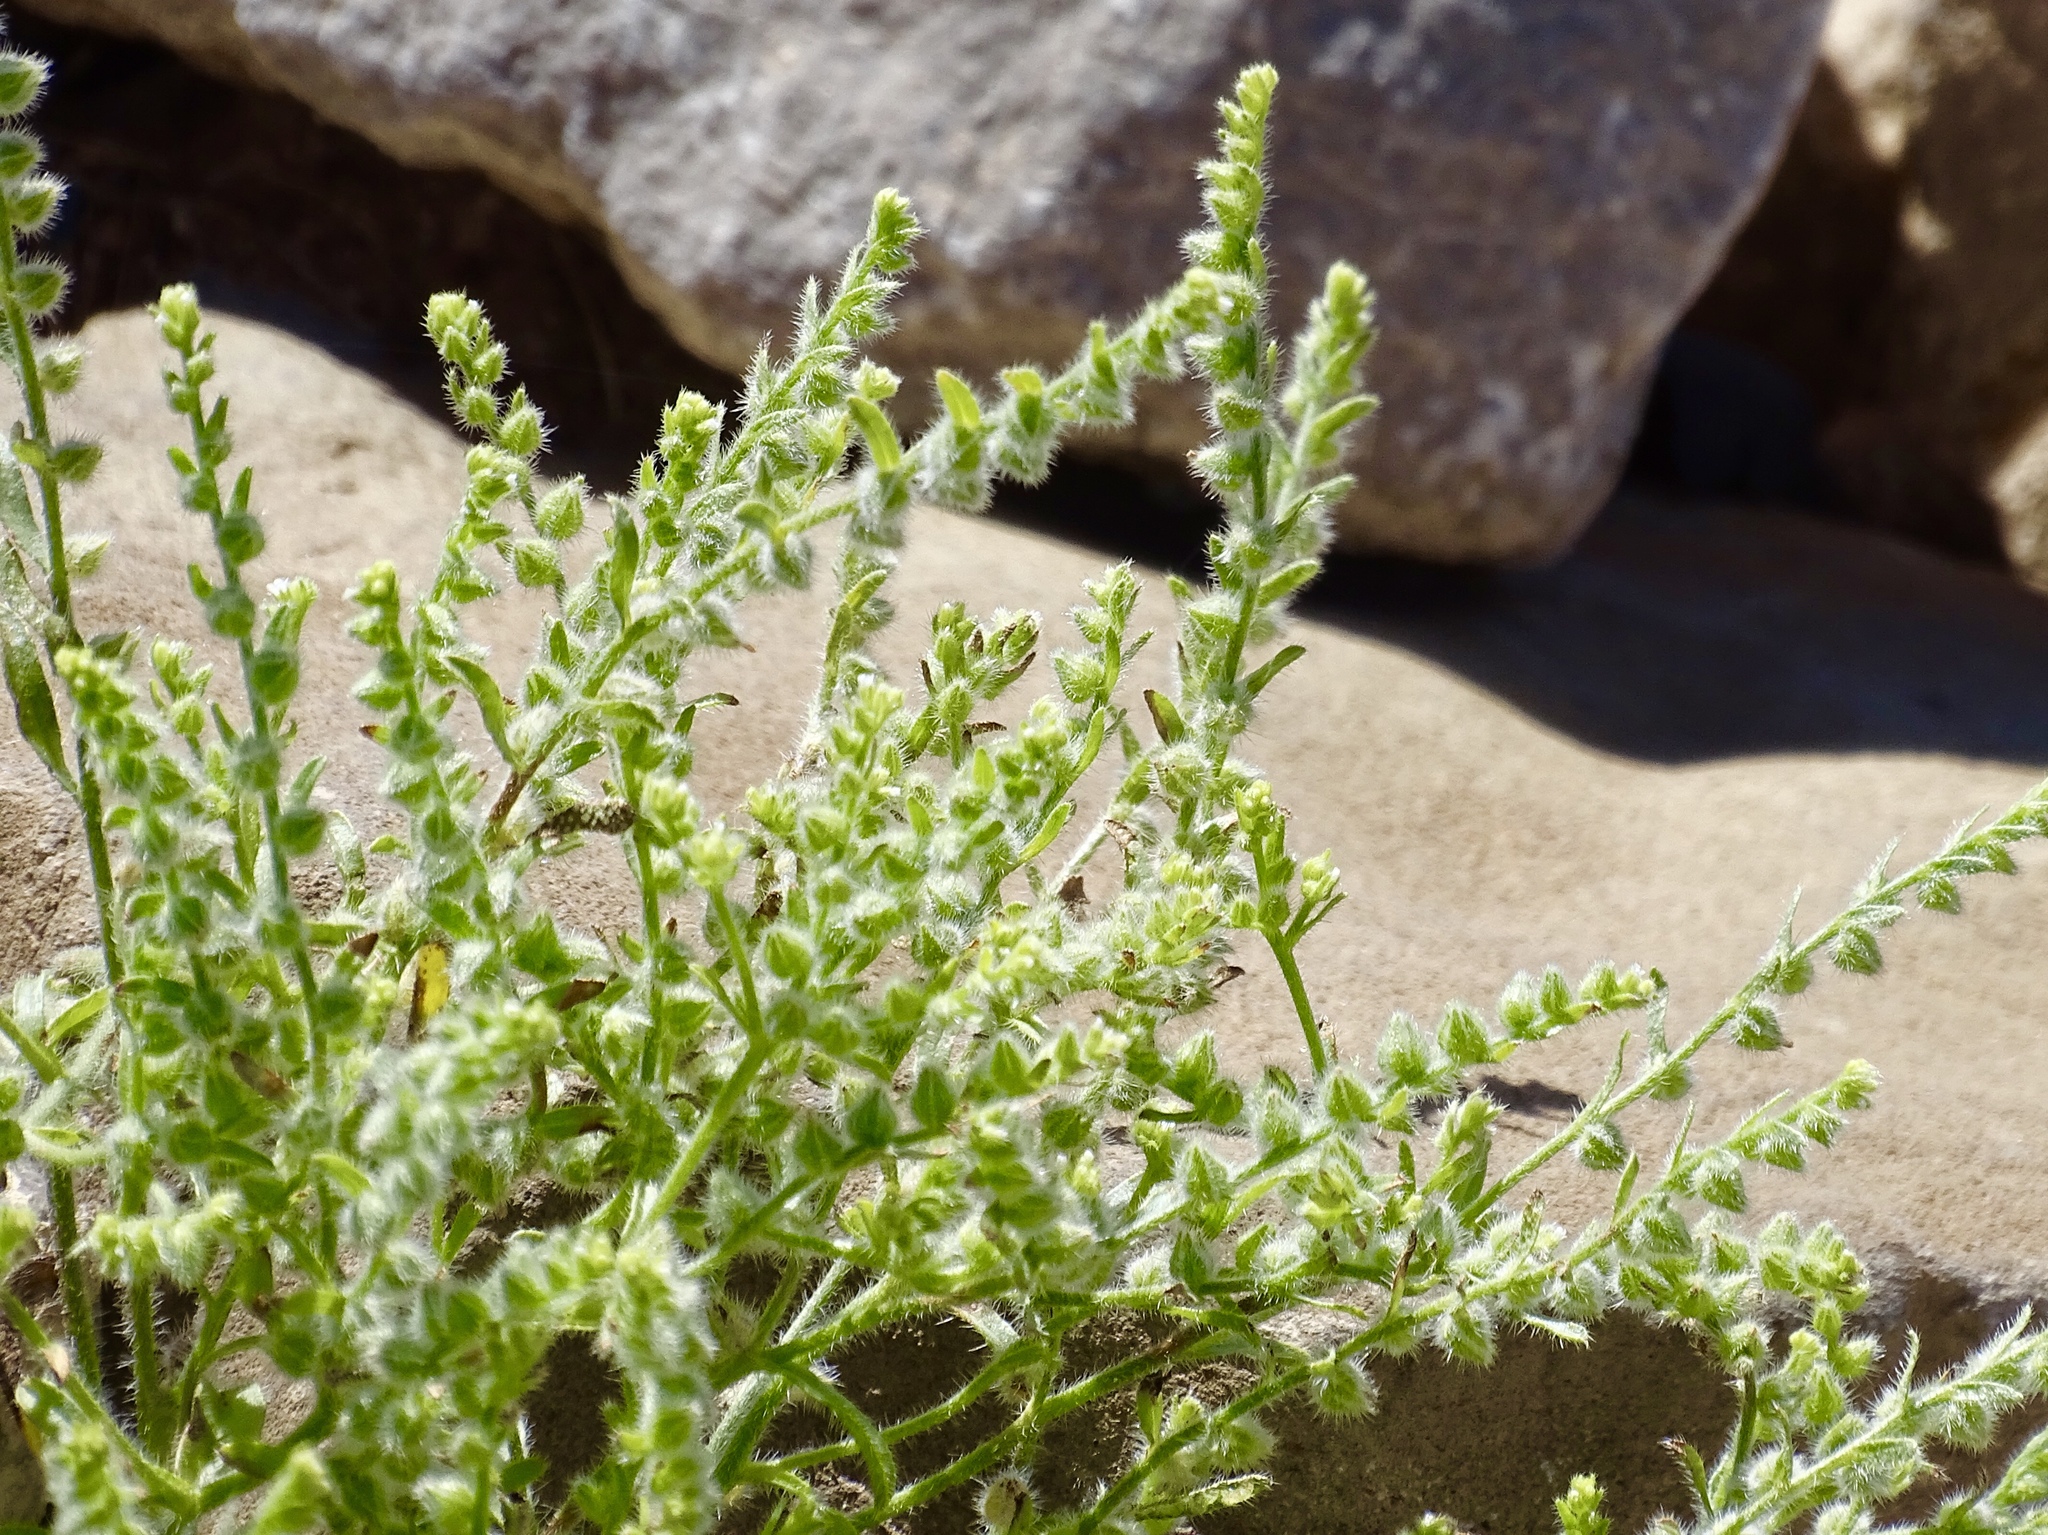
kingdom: Plantae
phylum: Tracheophyta
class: Magnoliopsida
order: Boraginales
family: Boraginaceae
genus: Cryptantha
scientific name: Cryptantha minima
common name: Little cat's-eye
